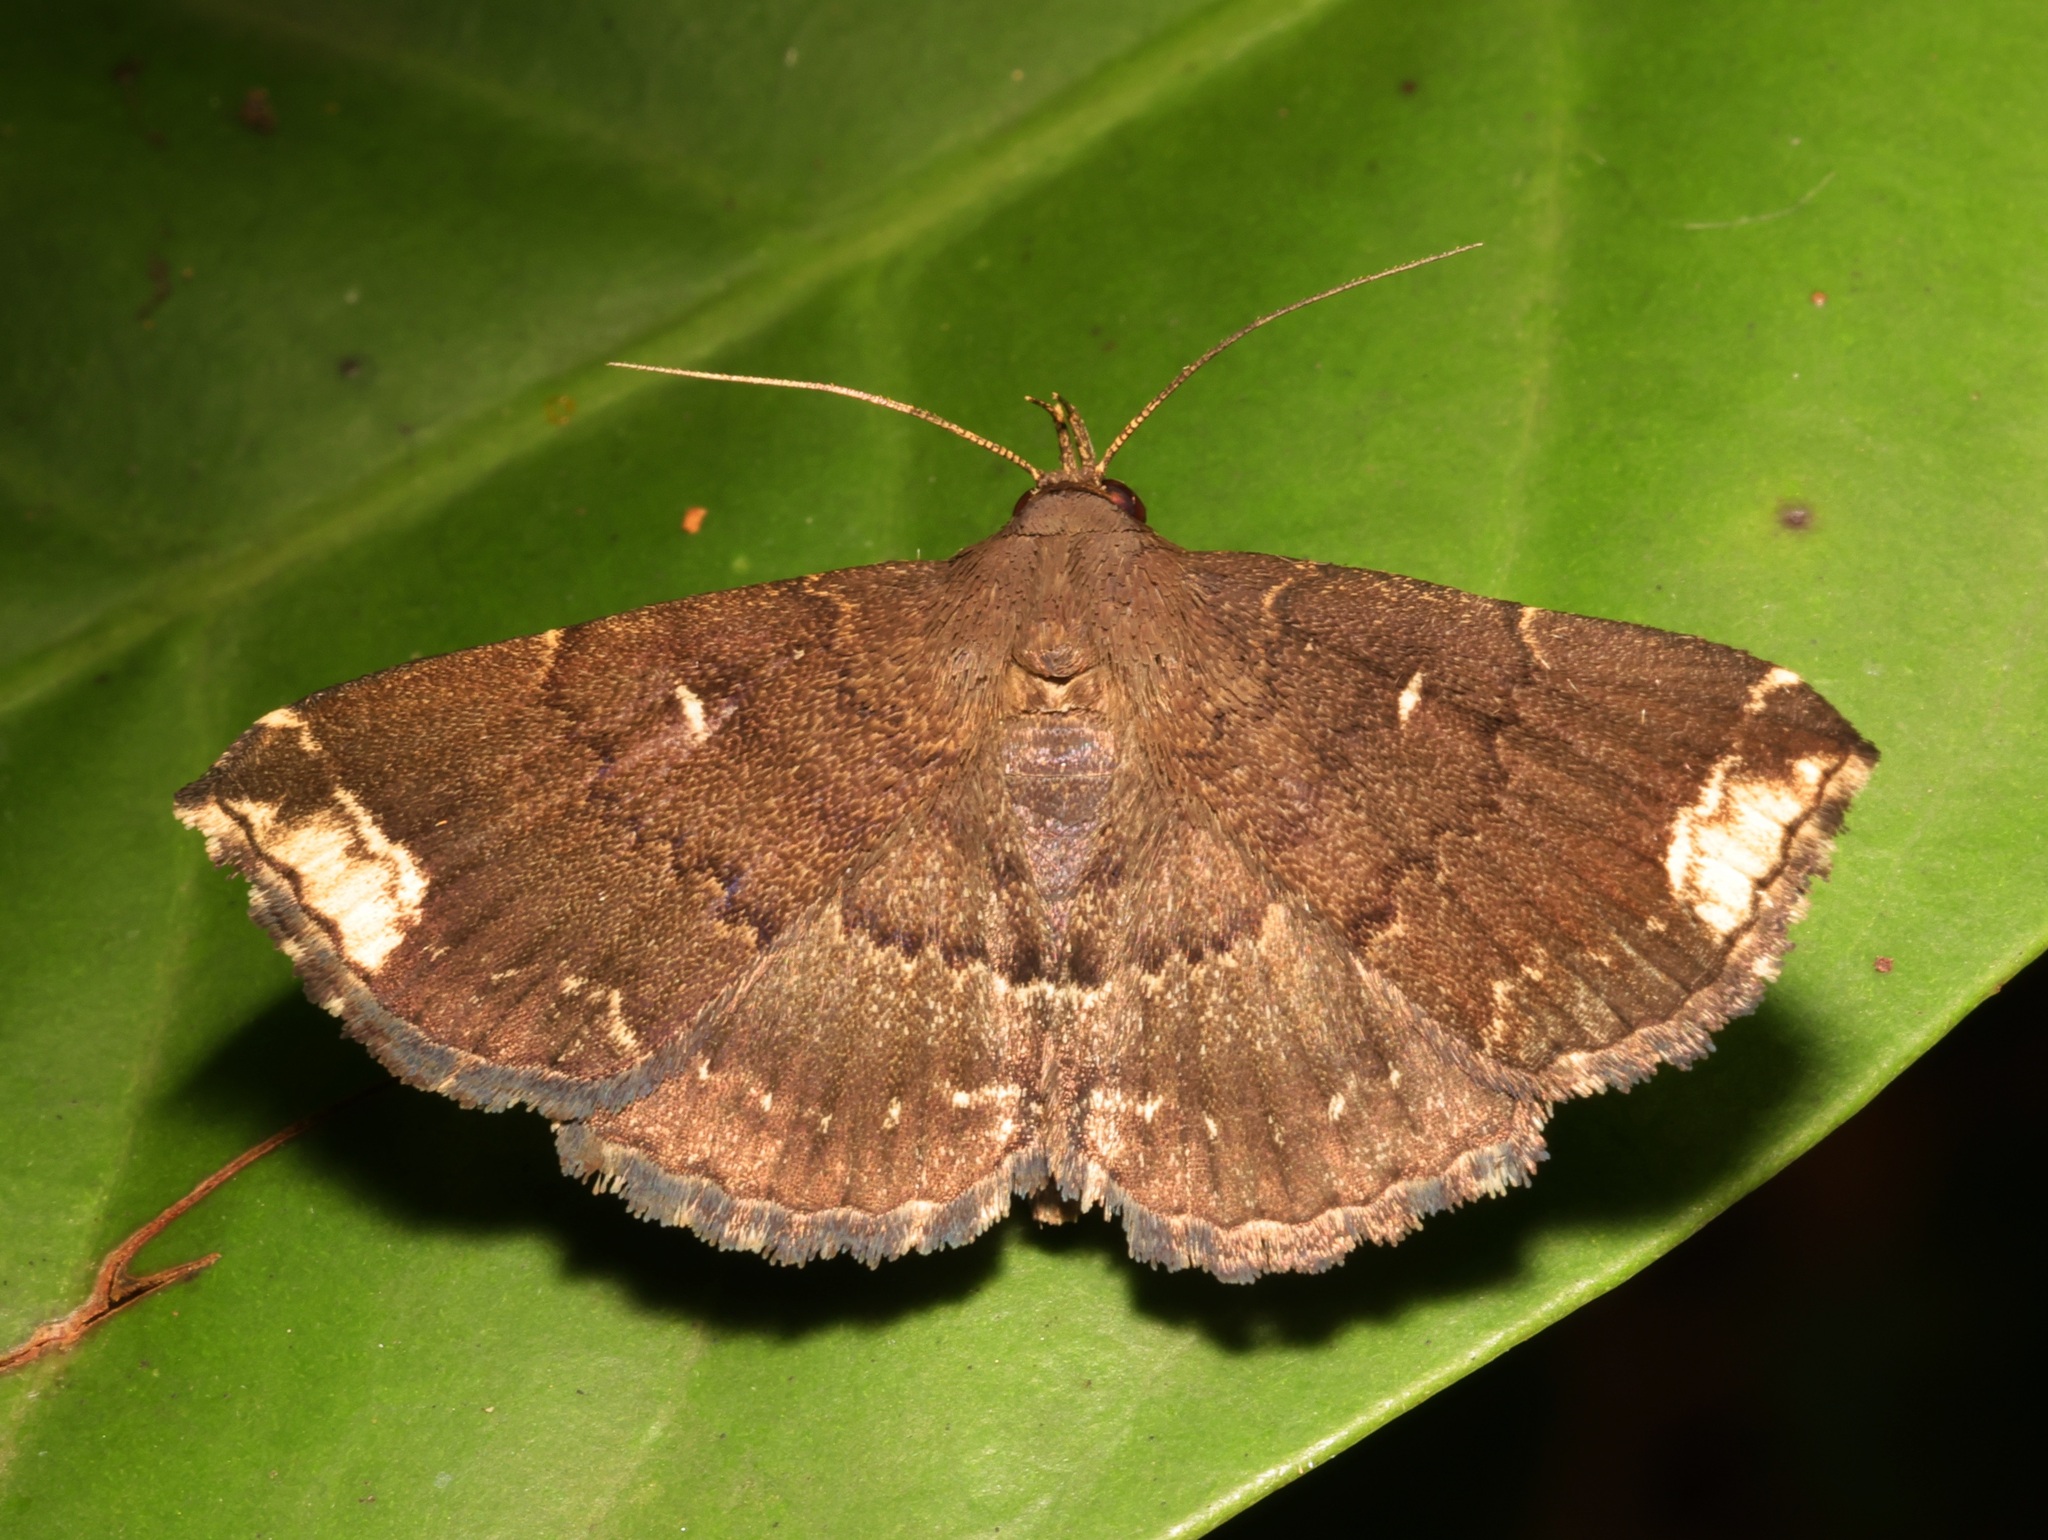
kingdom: Animalia
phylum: Arthropoda
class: Insecta
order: Lepidoptera
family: Erebidae
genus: Adrapsa
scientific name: Adrapsa quadrilinealis
